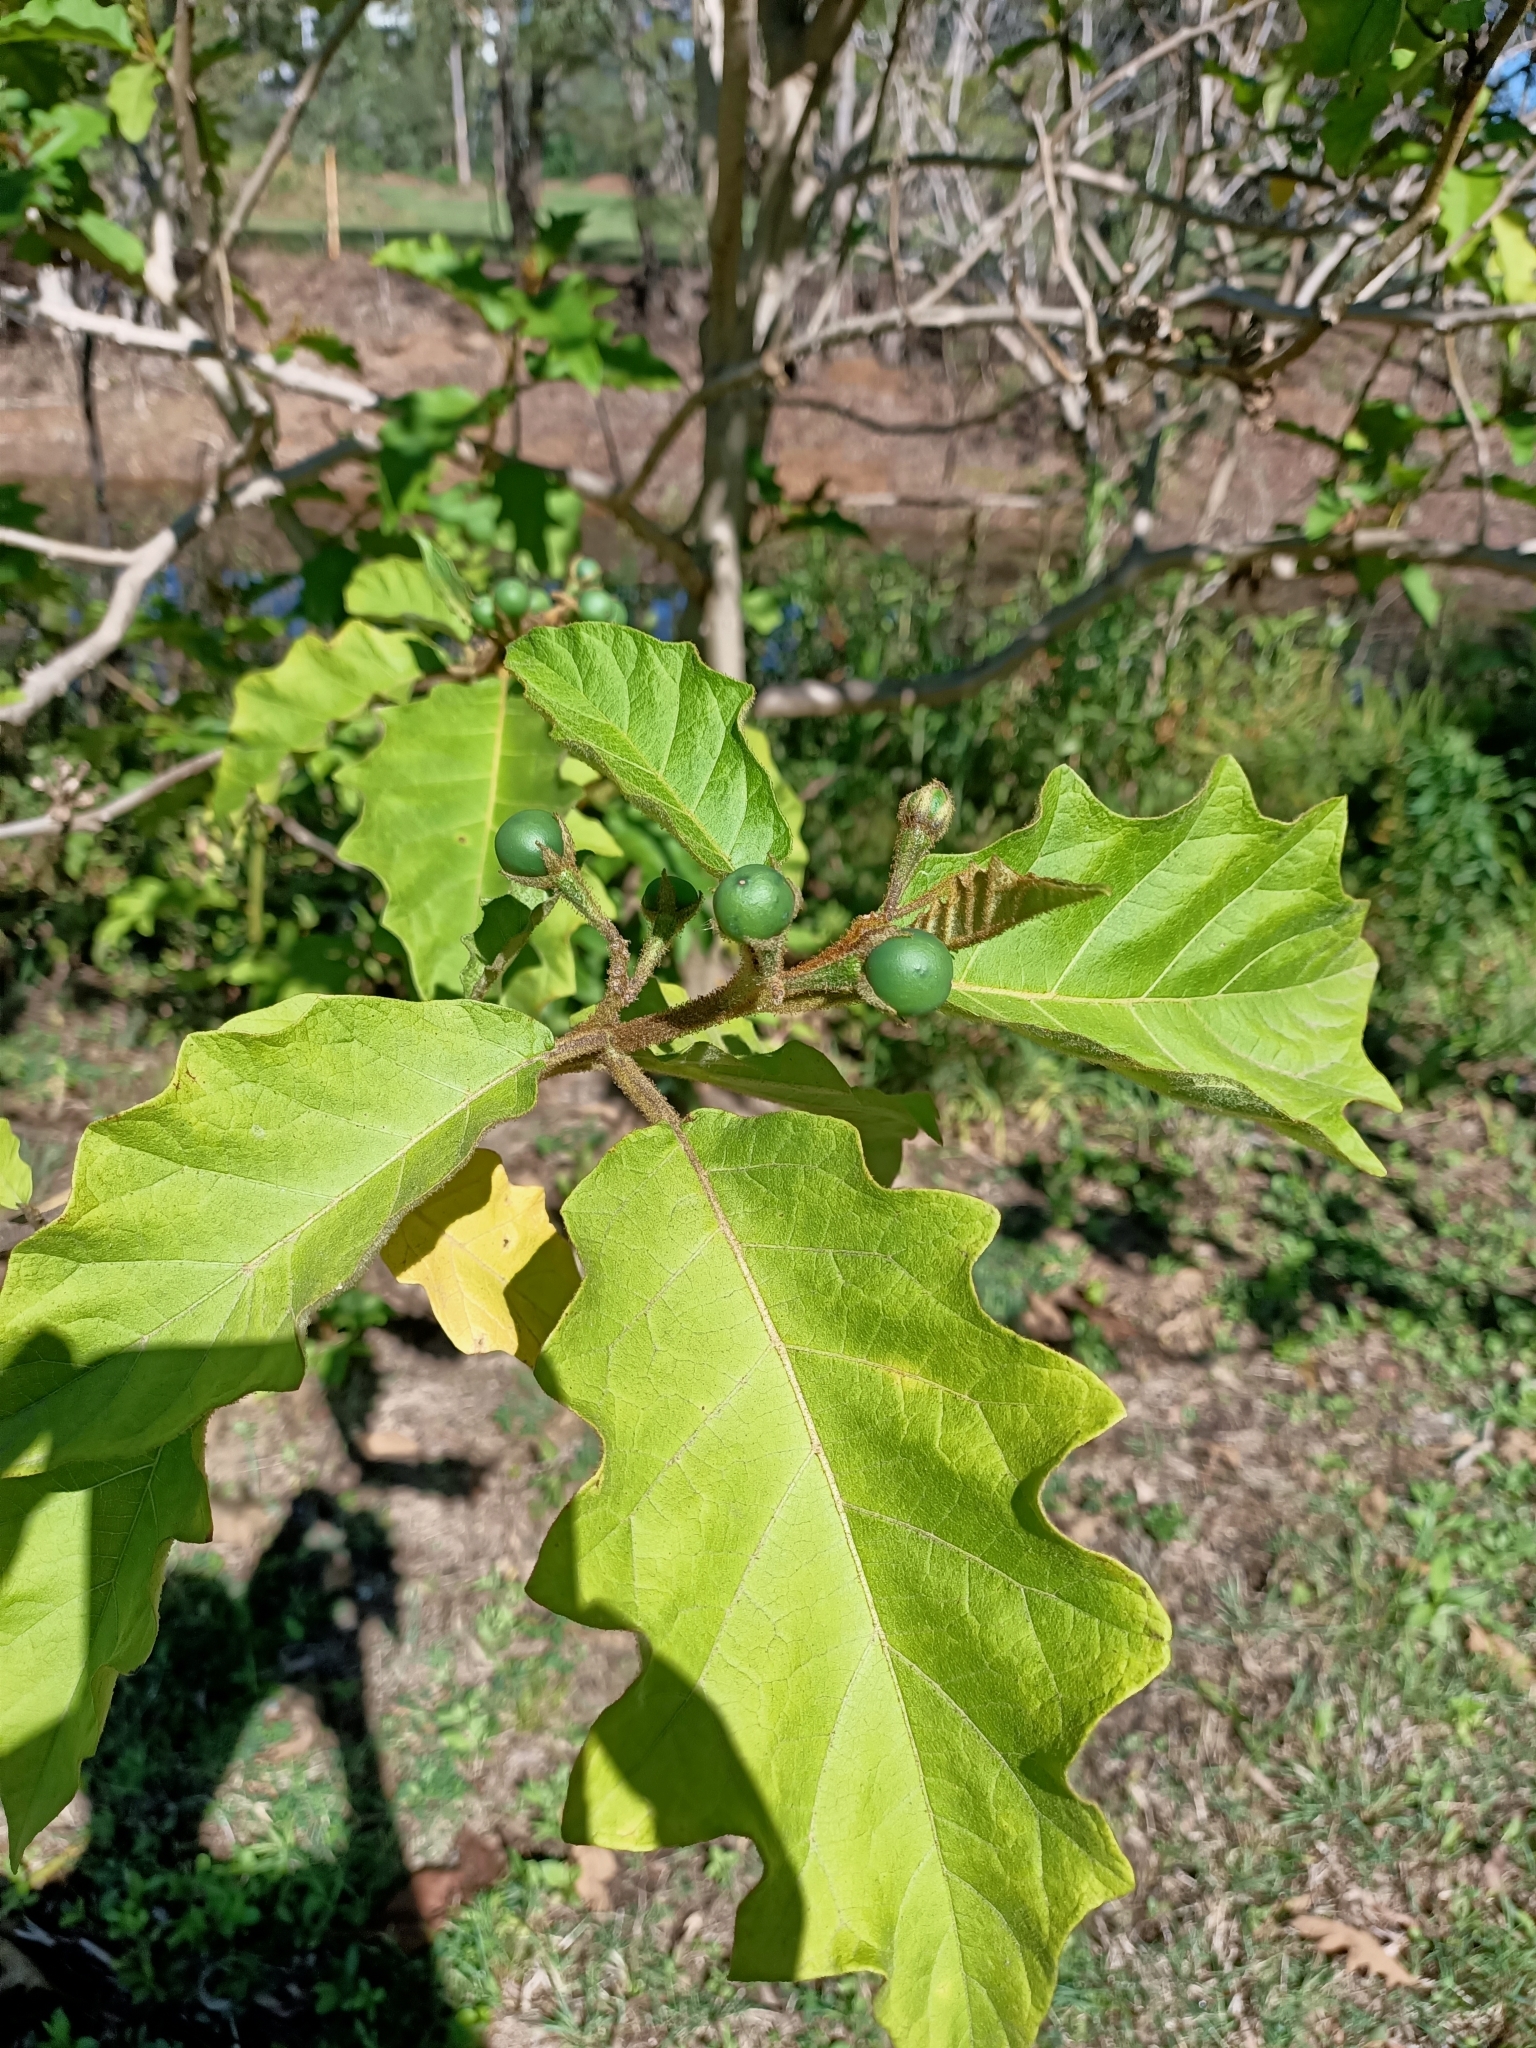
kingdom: Plantae
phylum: Tracheophyta
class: Magnoliopsida
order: Solanales
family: Solanaceae
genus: Solanum
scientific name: Solanum chrysotrichum
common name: Nightshade
